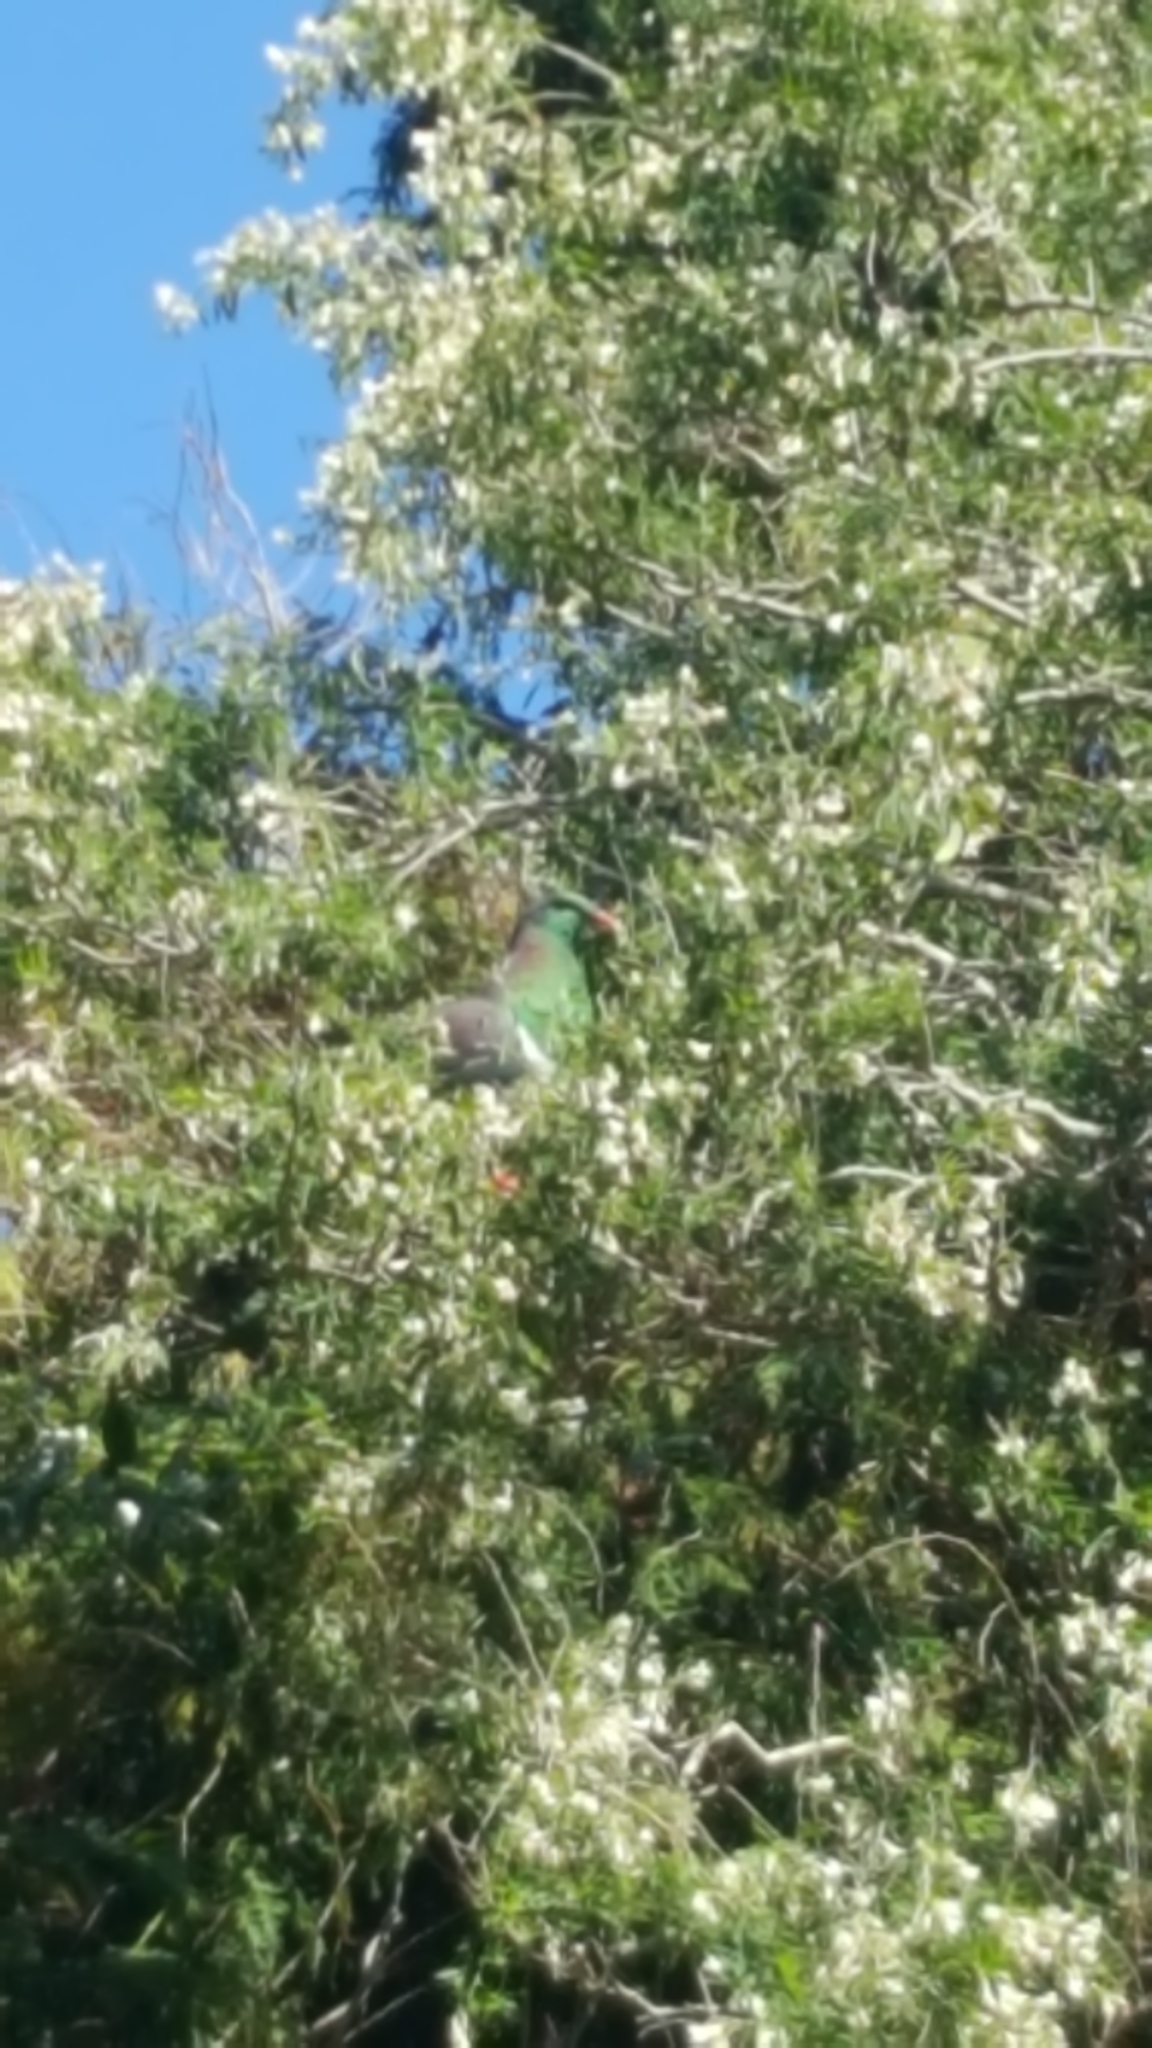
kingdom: Animalia
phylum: Chordata
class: Aves
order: Columbiformes
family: Columbidae
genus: Hemiphaga
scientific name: Hemiphaga novaeseelandiae
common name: New zealand pigeon
